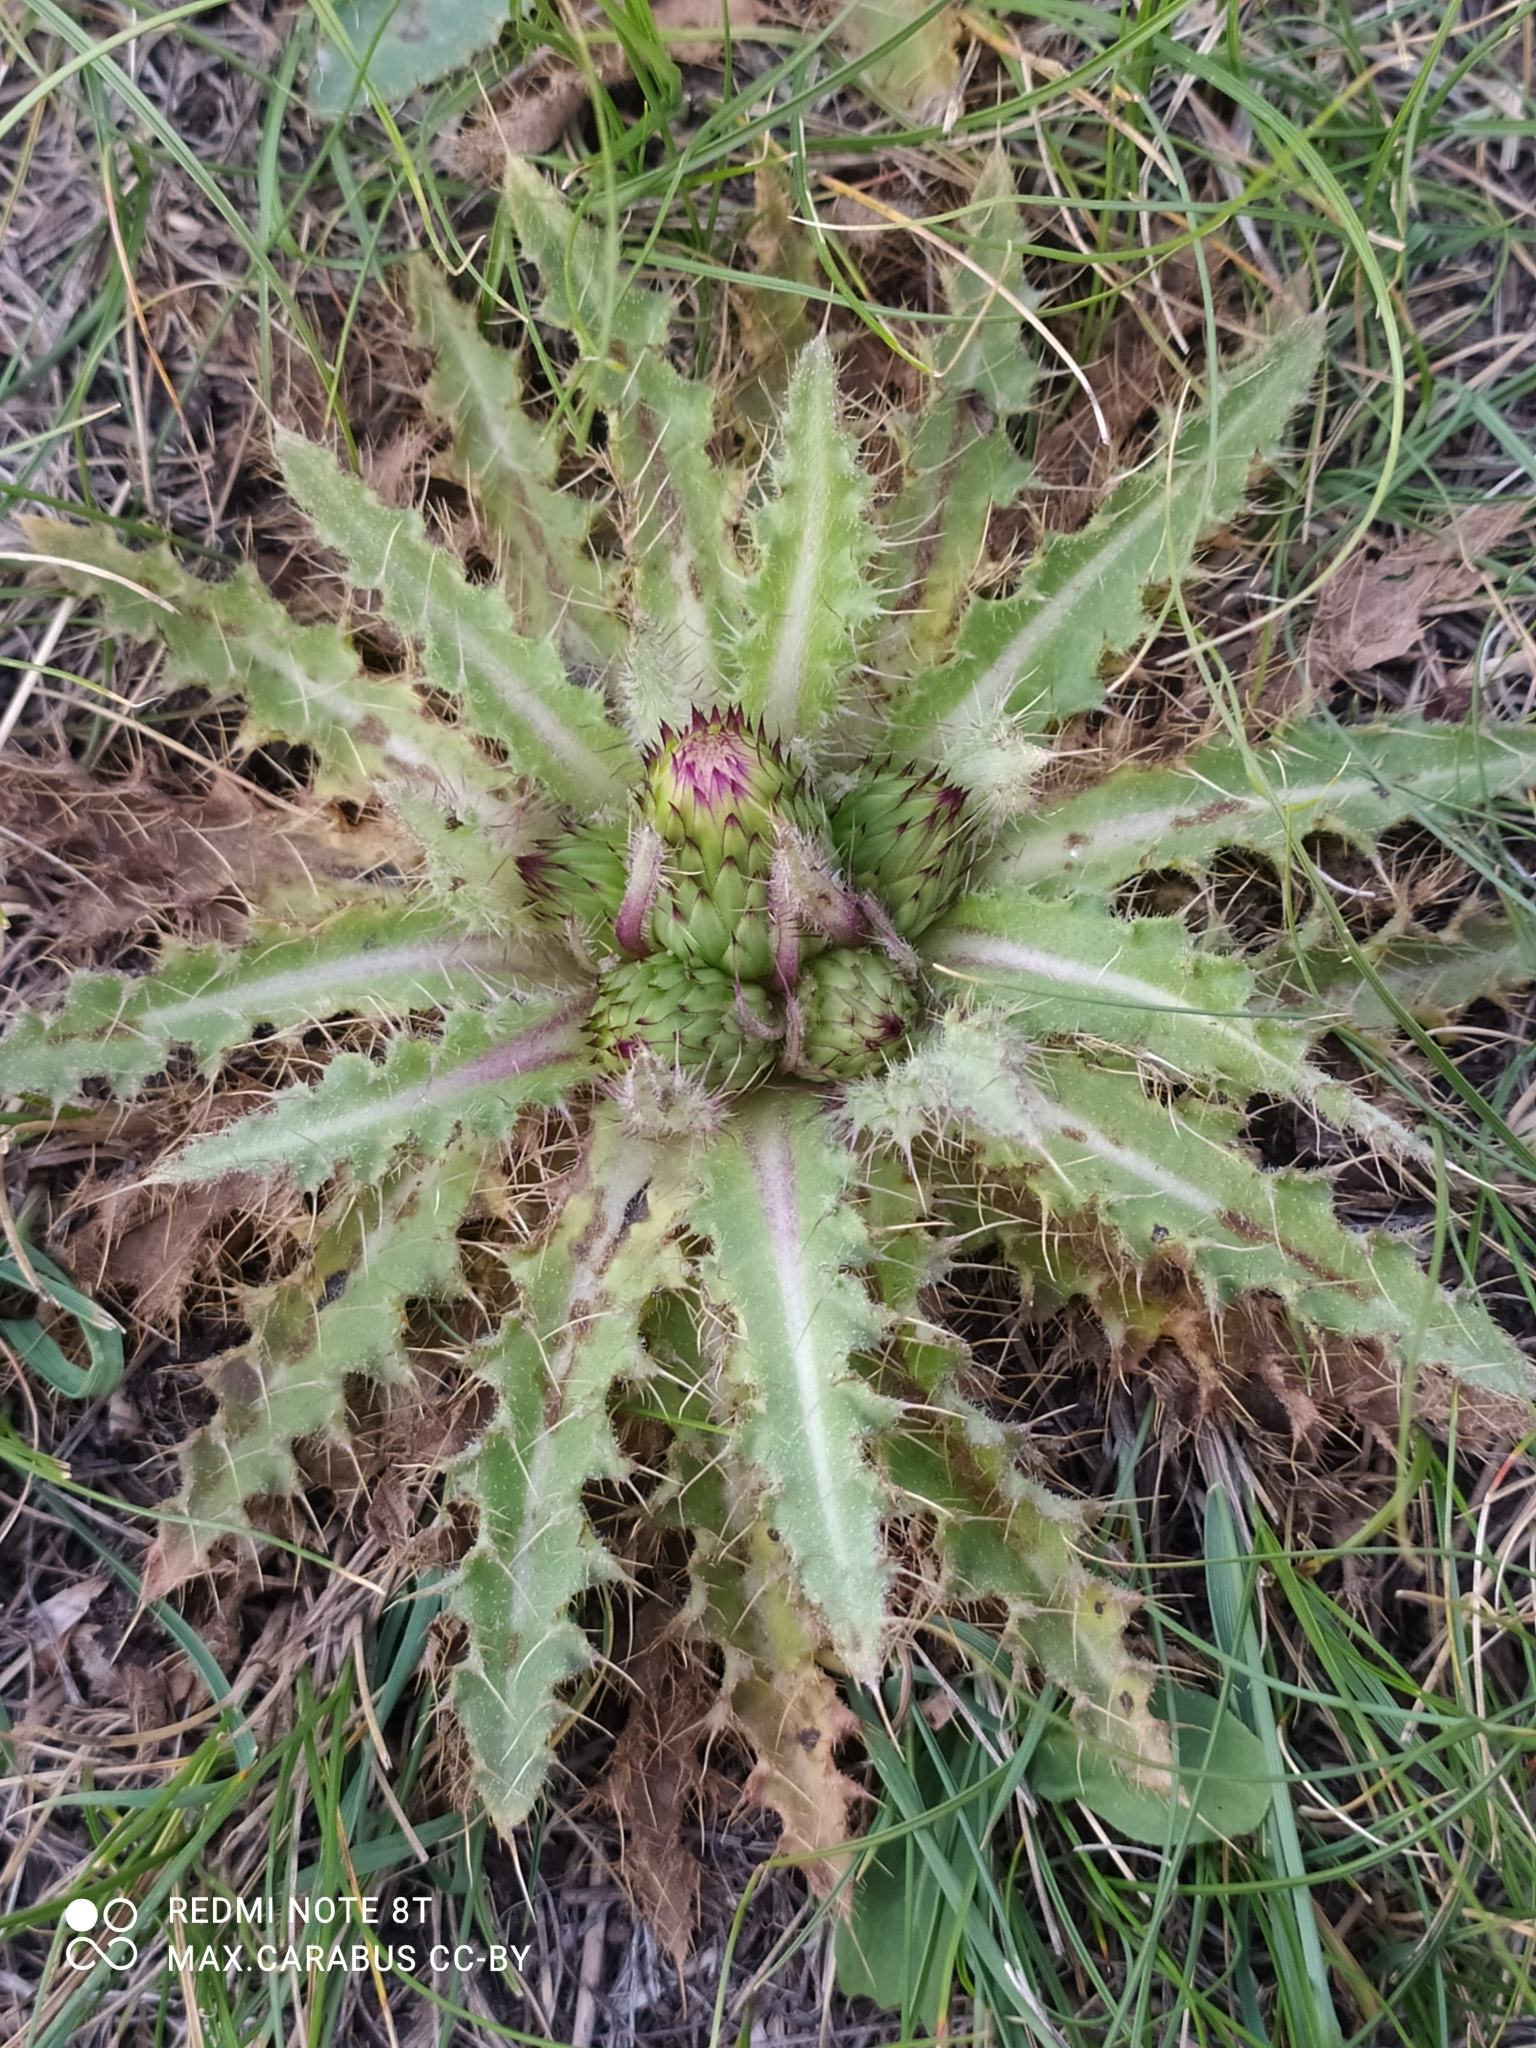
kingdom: Plantae
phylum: Tracheophyta
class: Magnoliopsida
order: Asterales
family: Asteraceae
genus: Cirsium
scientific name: Cirsium esculentum
